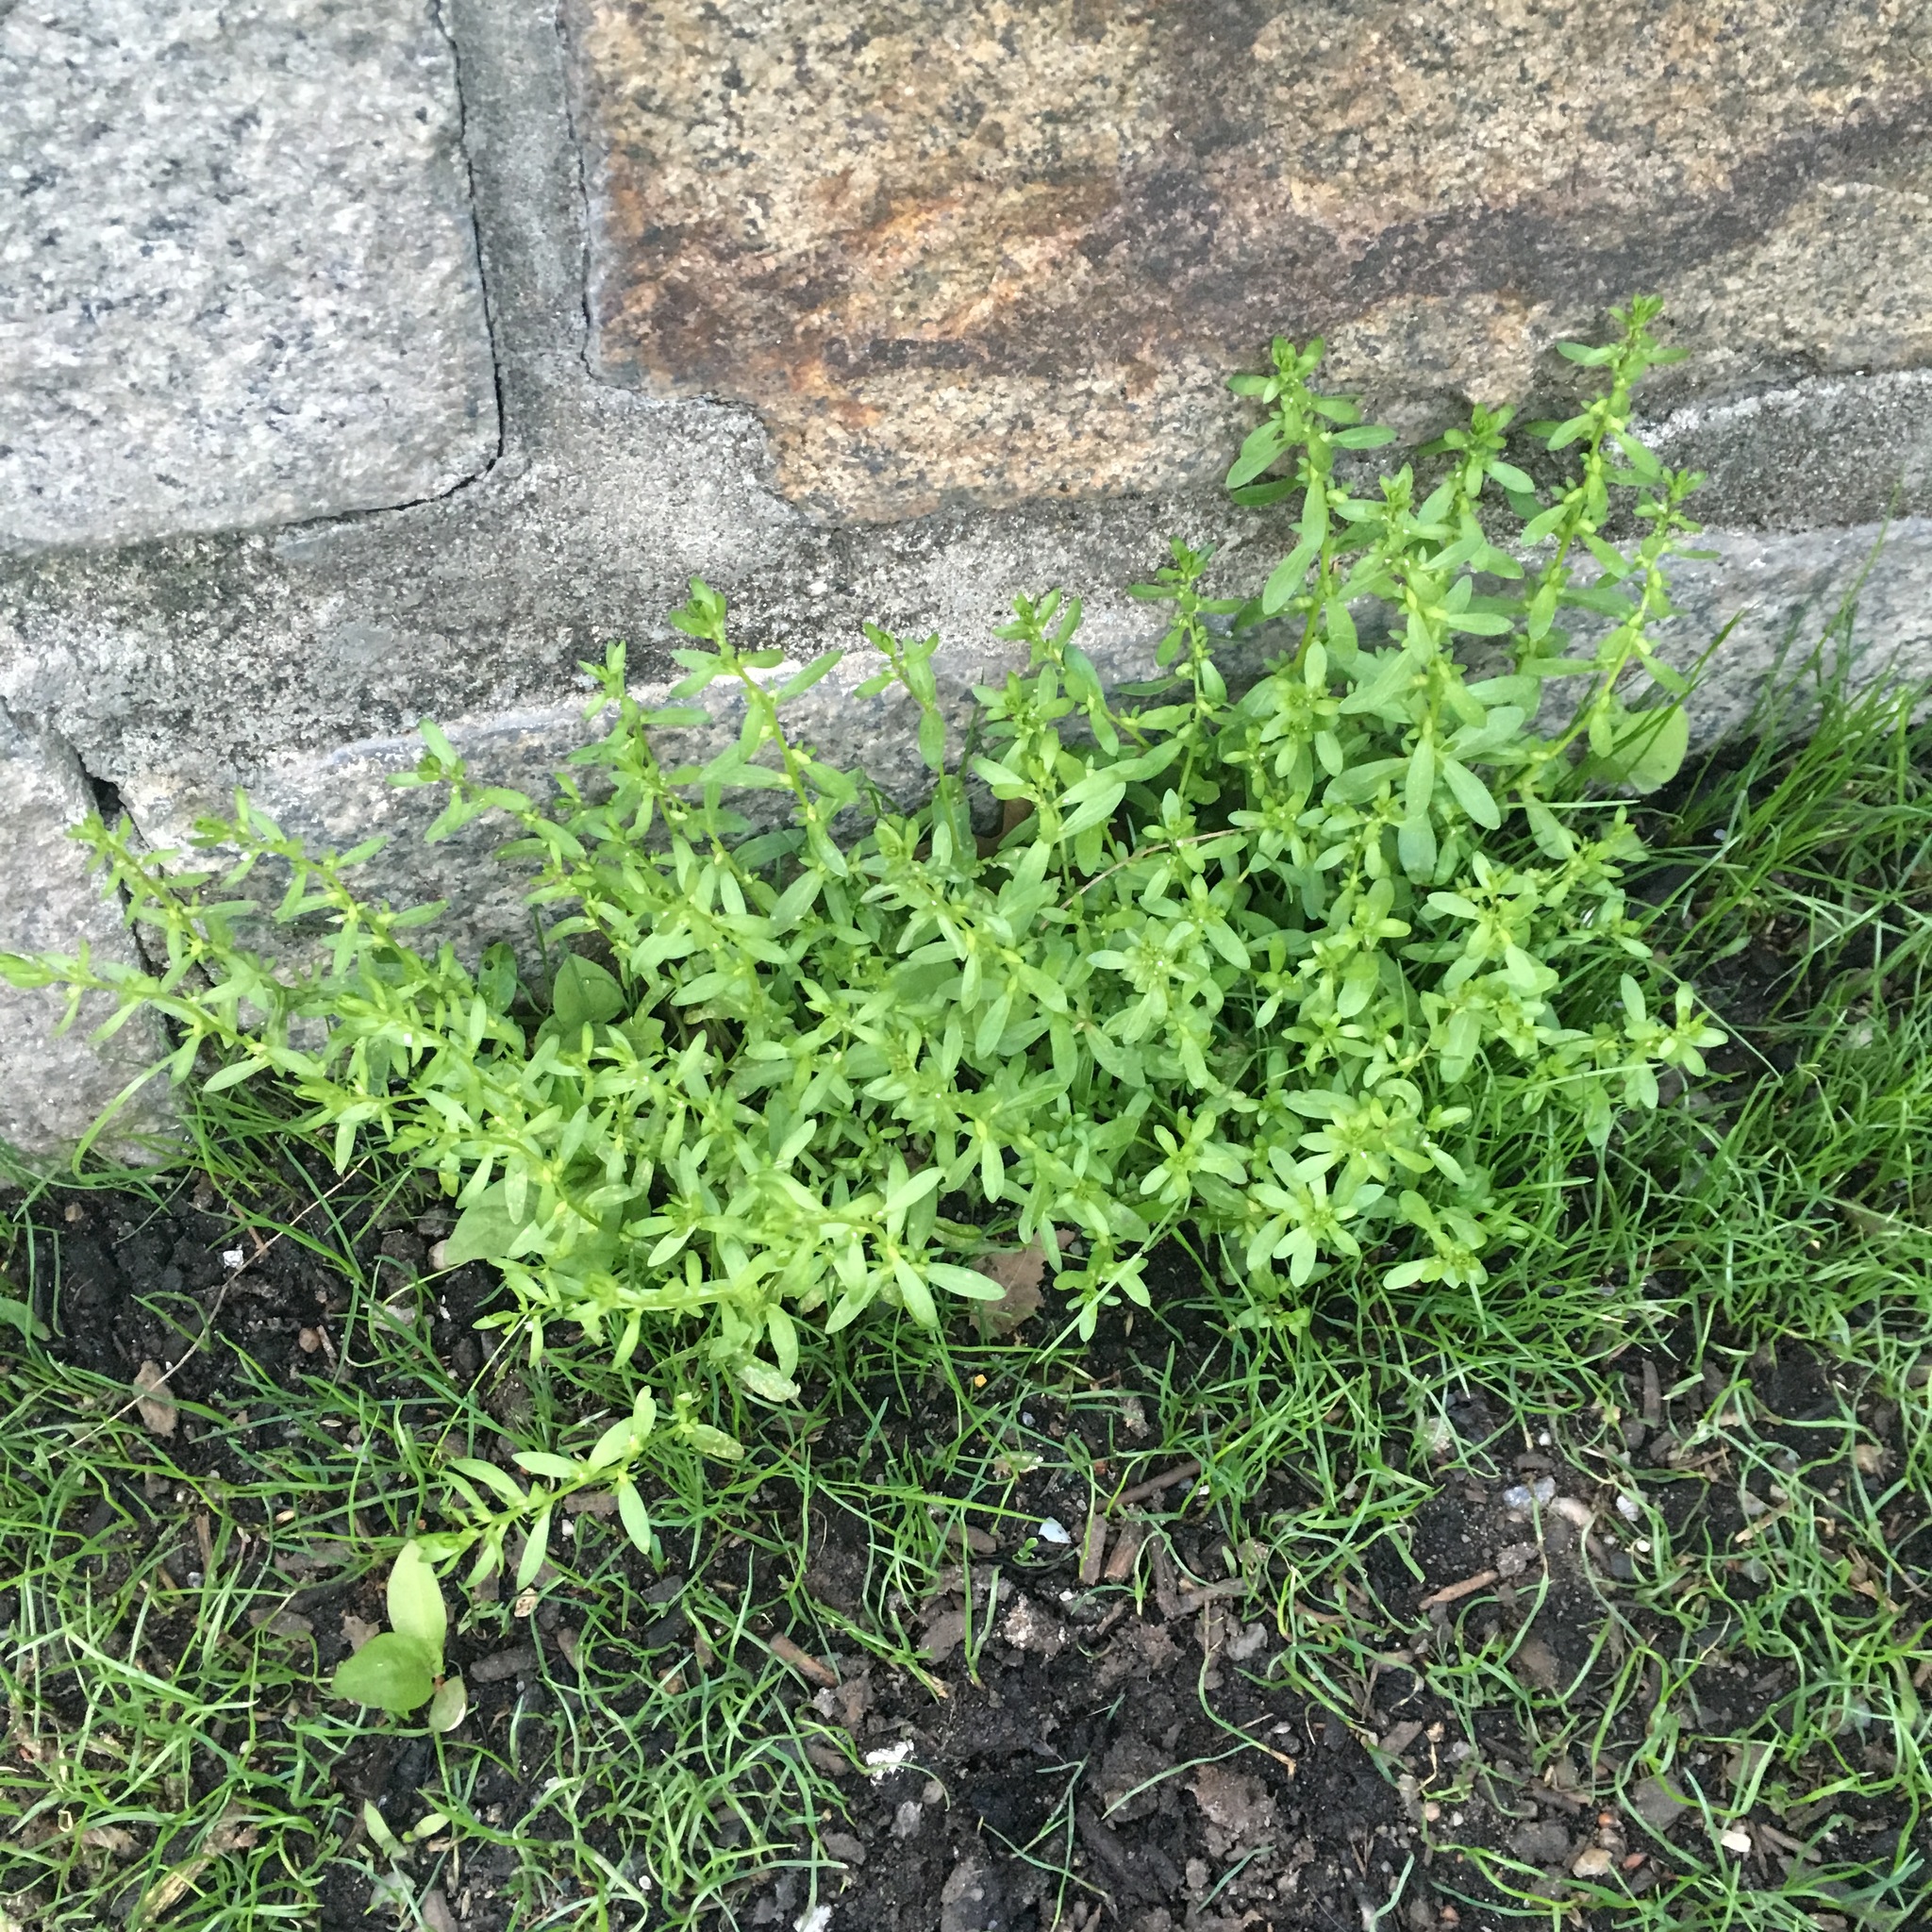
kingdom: Plantae
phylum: Tracheophyta
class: Magnoliopsida
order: Lamiales
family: Plantaginaceae
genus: Veronica
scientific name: Veronica peregrina
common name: Neckweed
